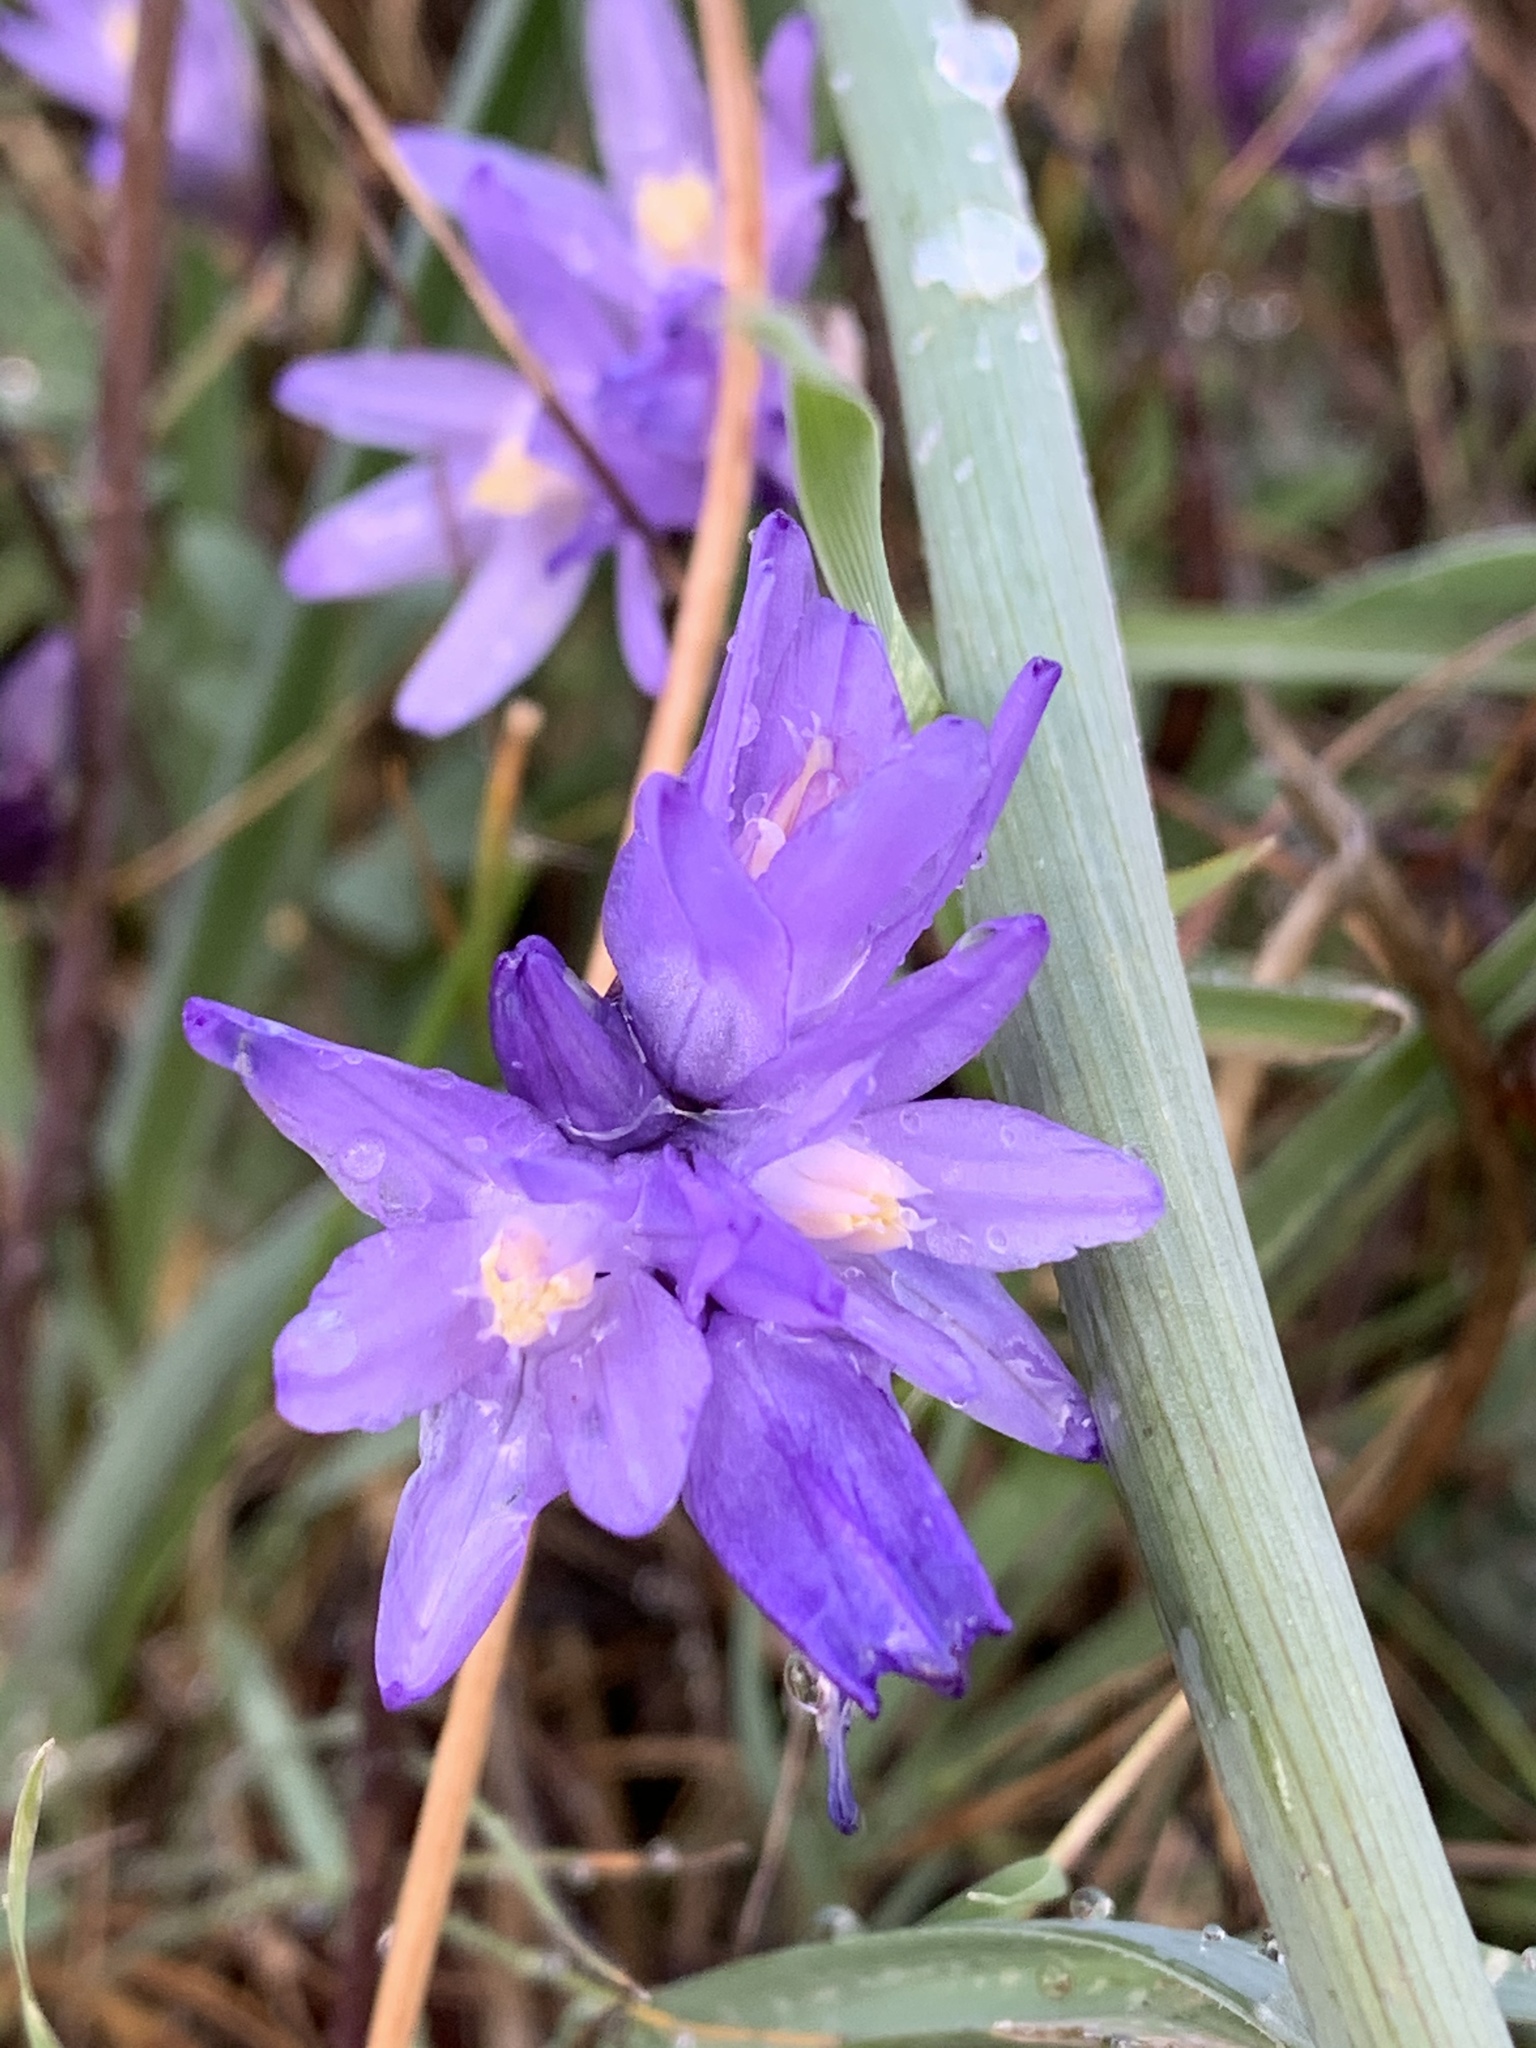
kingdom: Plantae
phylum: Tracheophyta
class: Liliopsida
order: Asparagales
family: Asparagaceae
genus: Dipterostemon
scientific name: Dipterostemon capitatus
